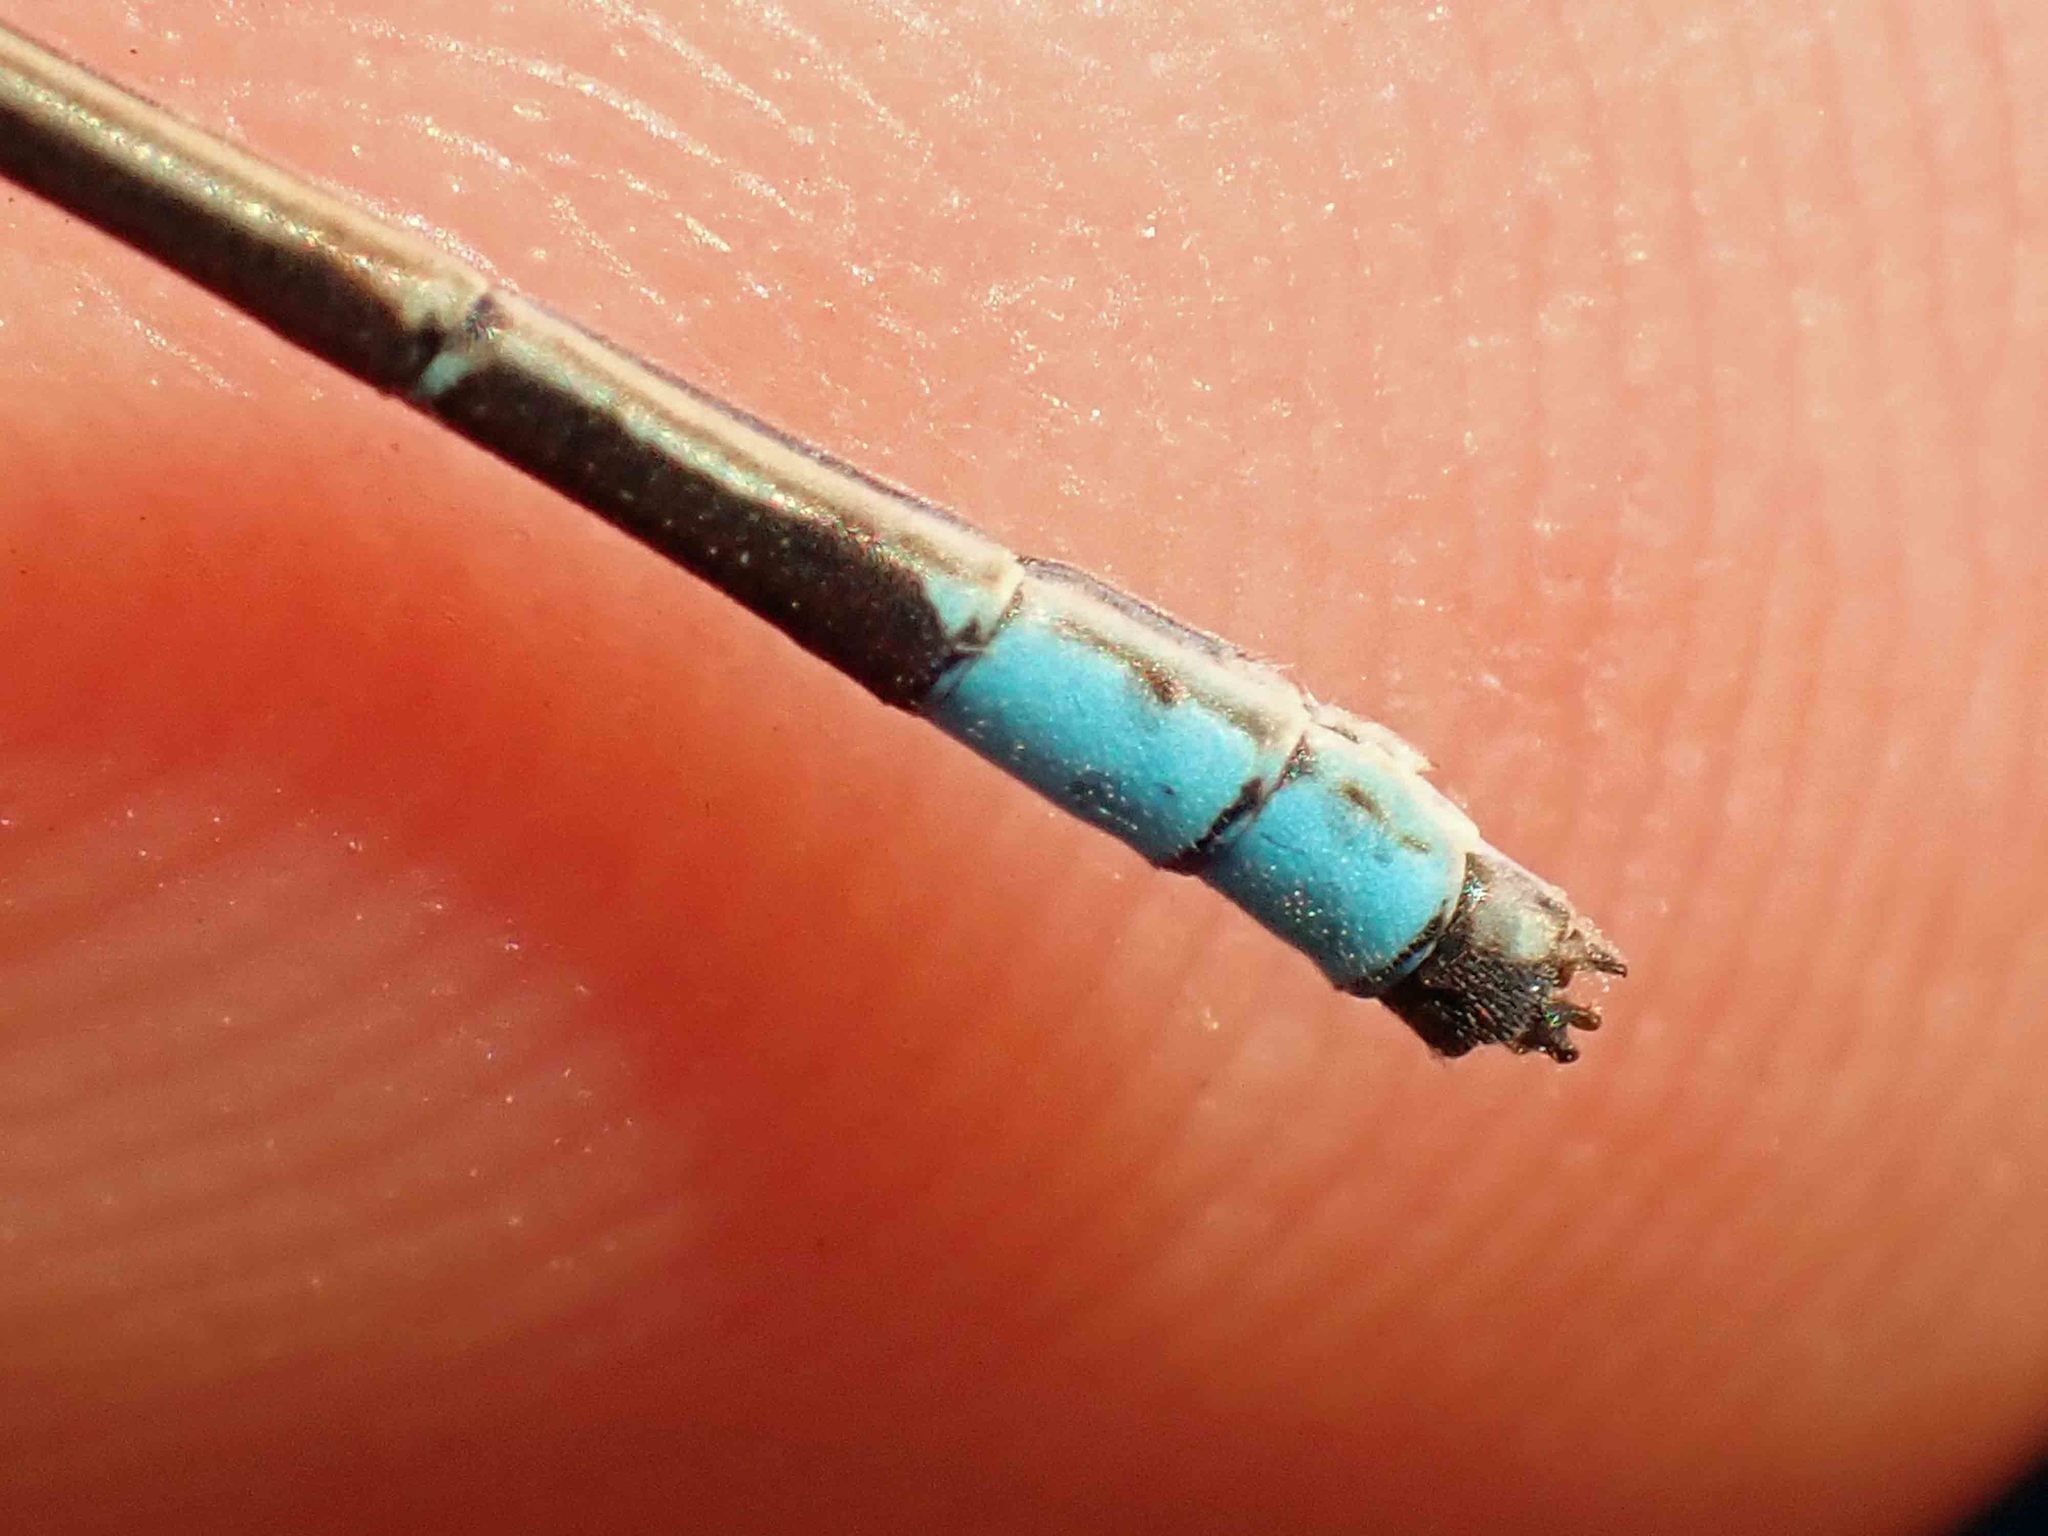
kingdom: Animalia
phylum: Arthropoda
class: Insecta
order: Odonata
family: Coenagrionidae
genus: Enallagma
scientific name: Enallagma ebrium
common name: Marsh bluet
